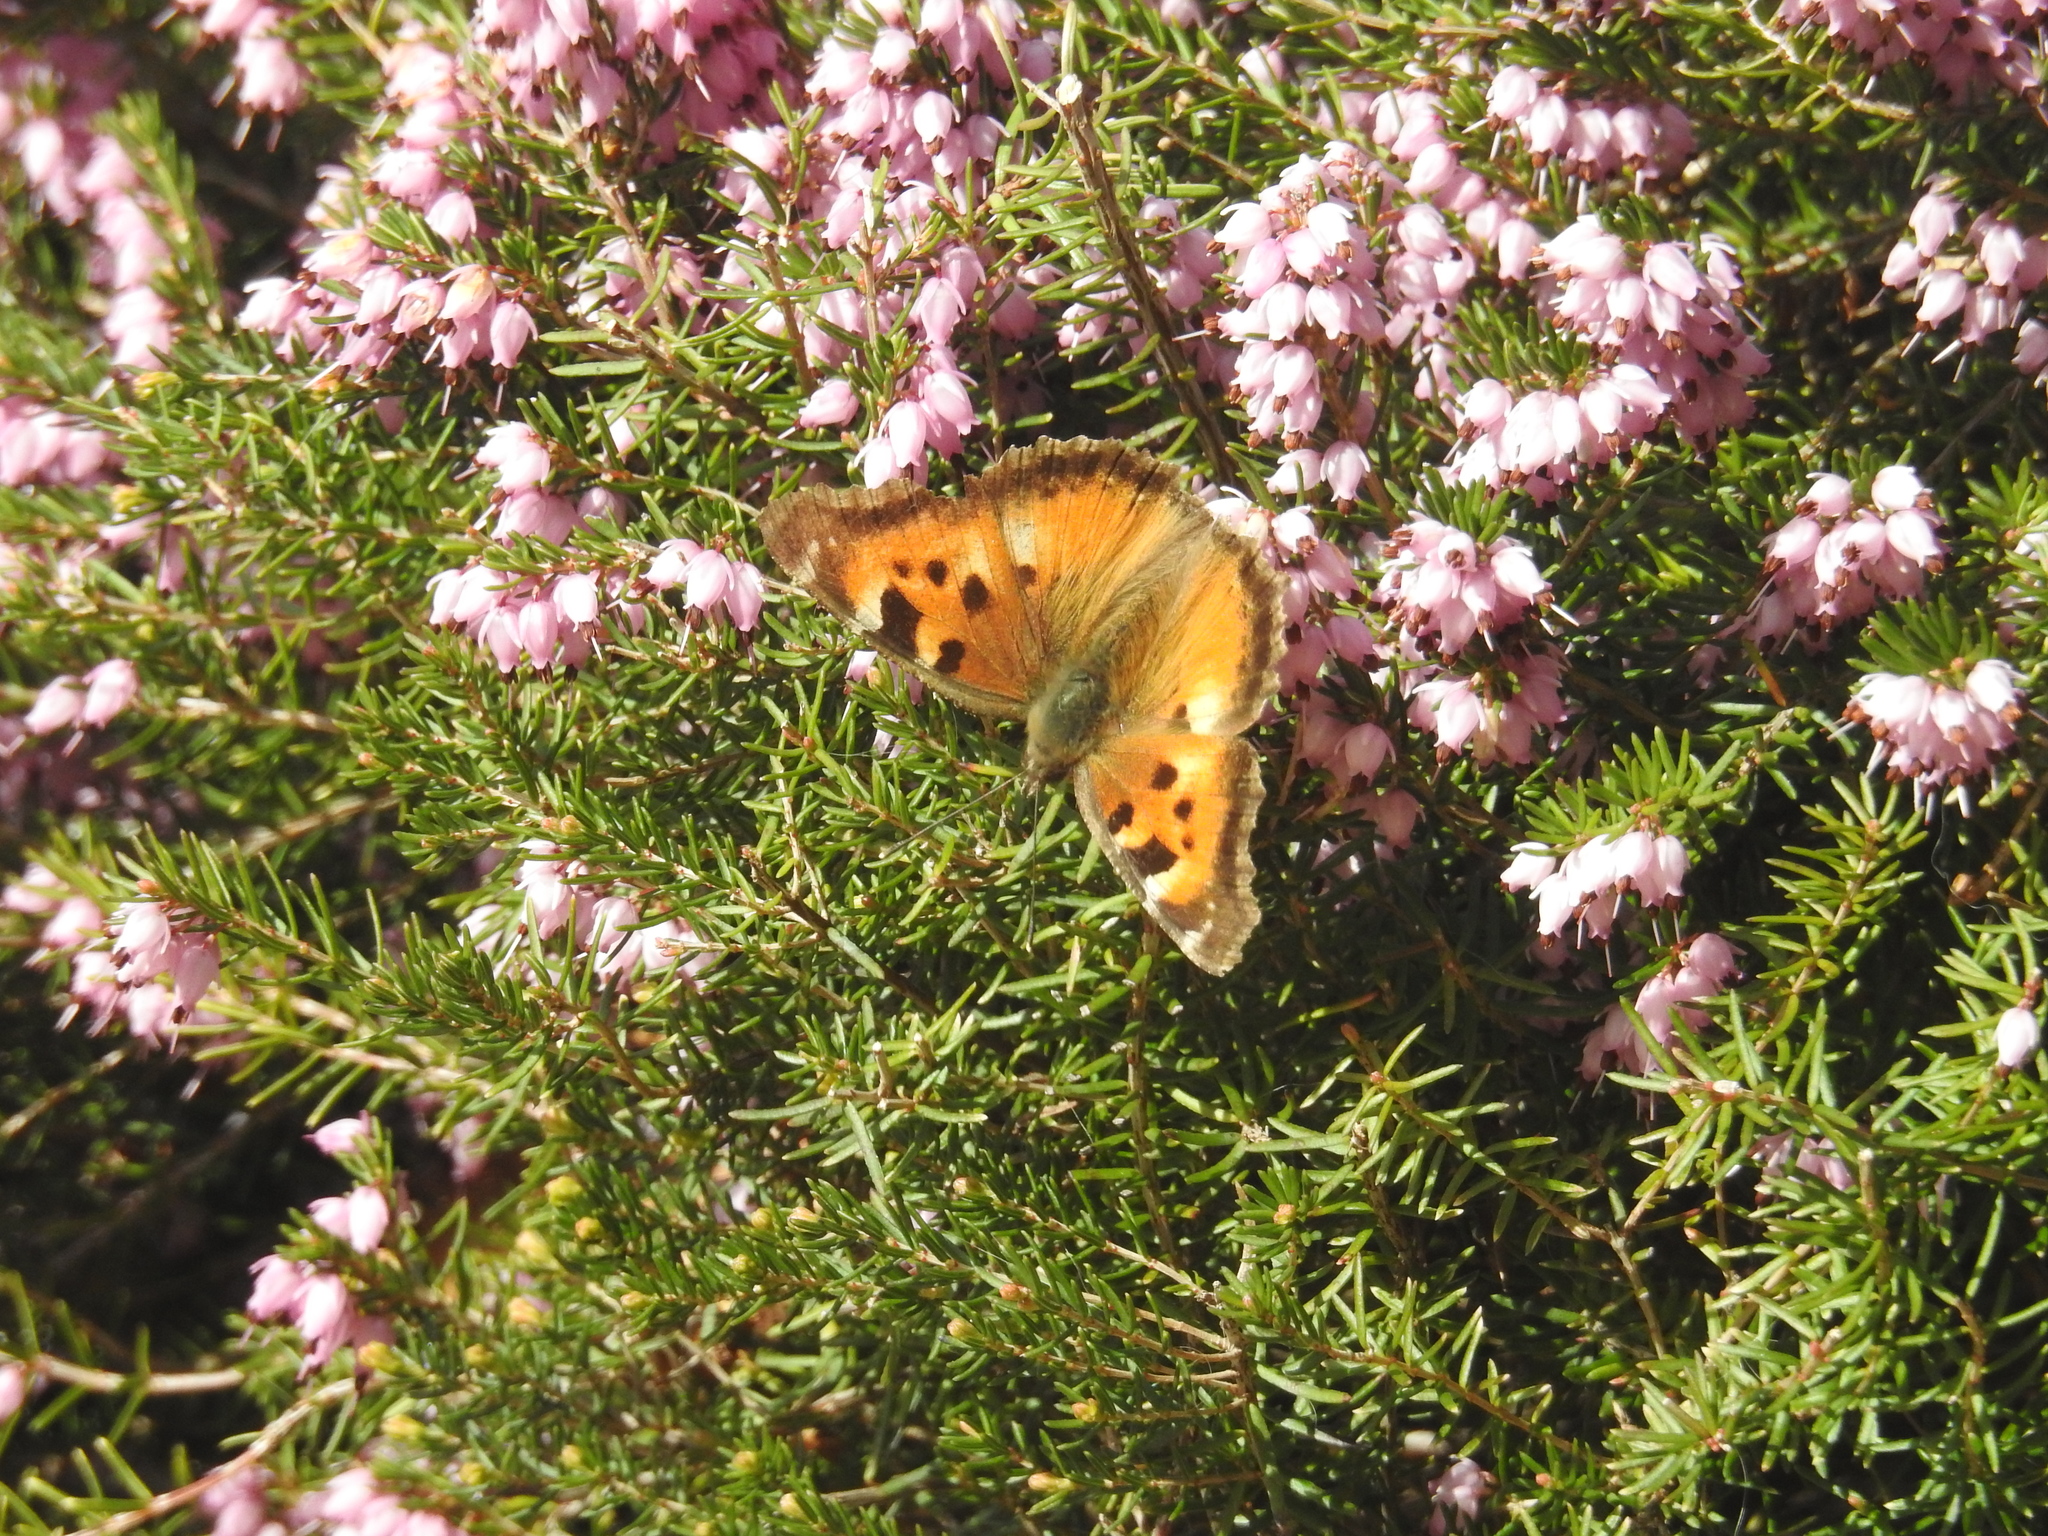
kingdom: Animalia
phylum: Arthropoda
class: Insecta
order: Lepidoptera
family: Nymphalidae
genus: Nymphalis
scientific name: Nymphalis californica
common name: California tortoiseshell
